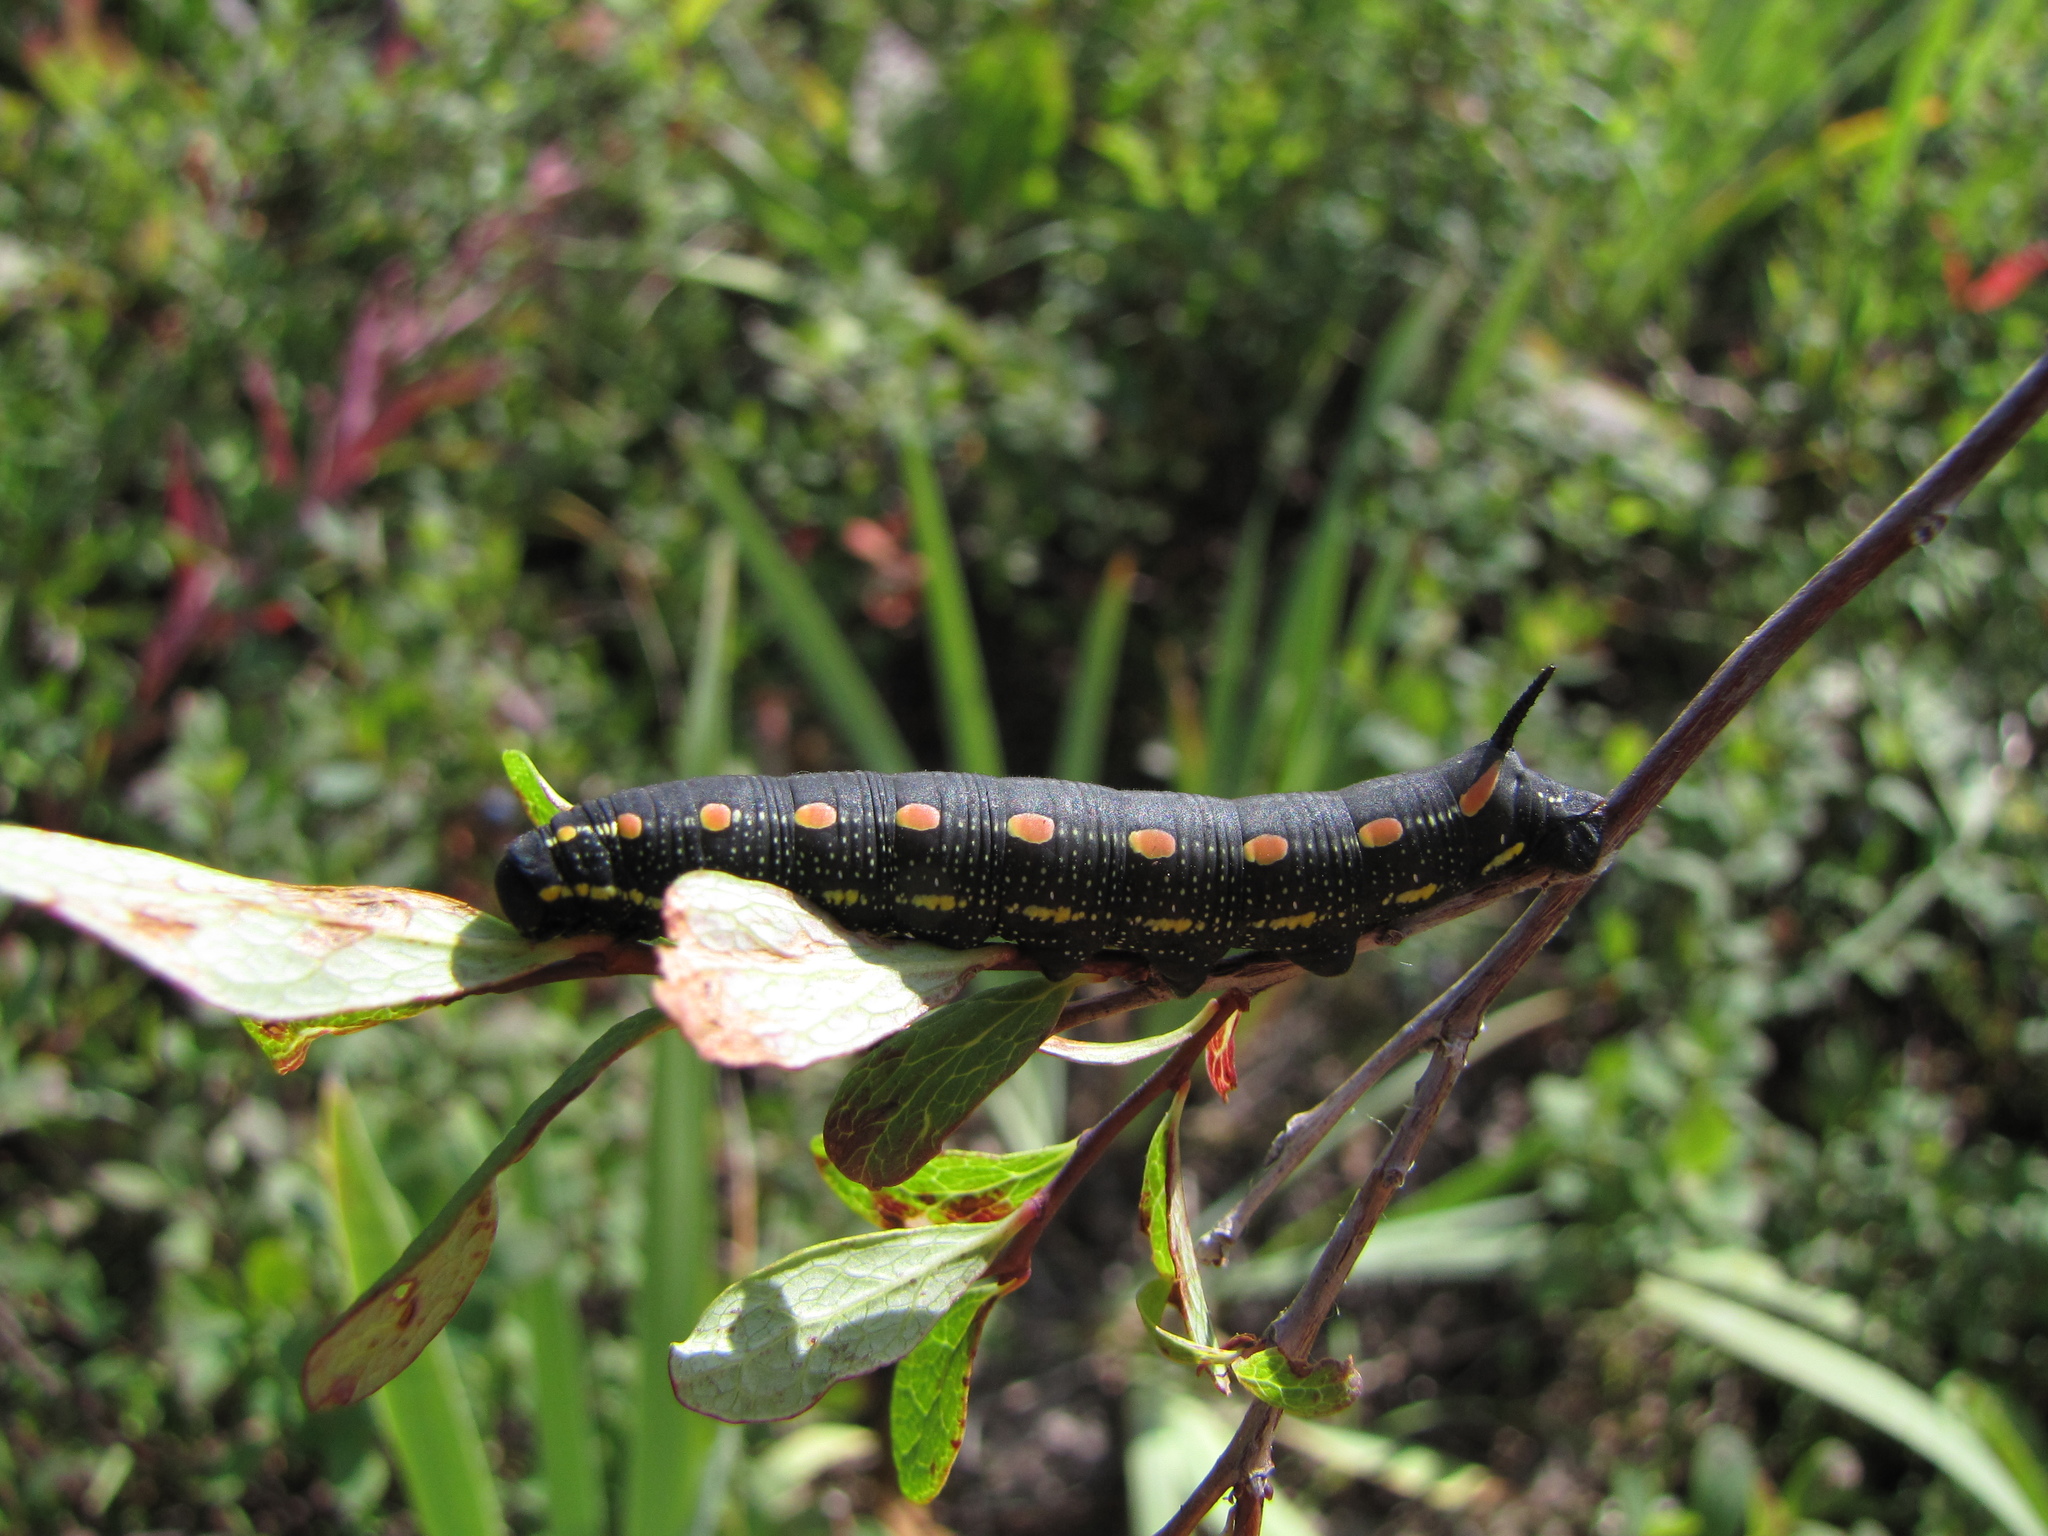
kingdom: Animalia
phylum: Arthropoda
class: Insecta
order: Lepidoptera
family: Sphingidae
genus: Hyles
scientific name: Hyles gallii
